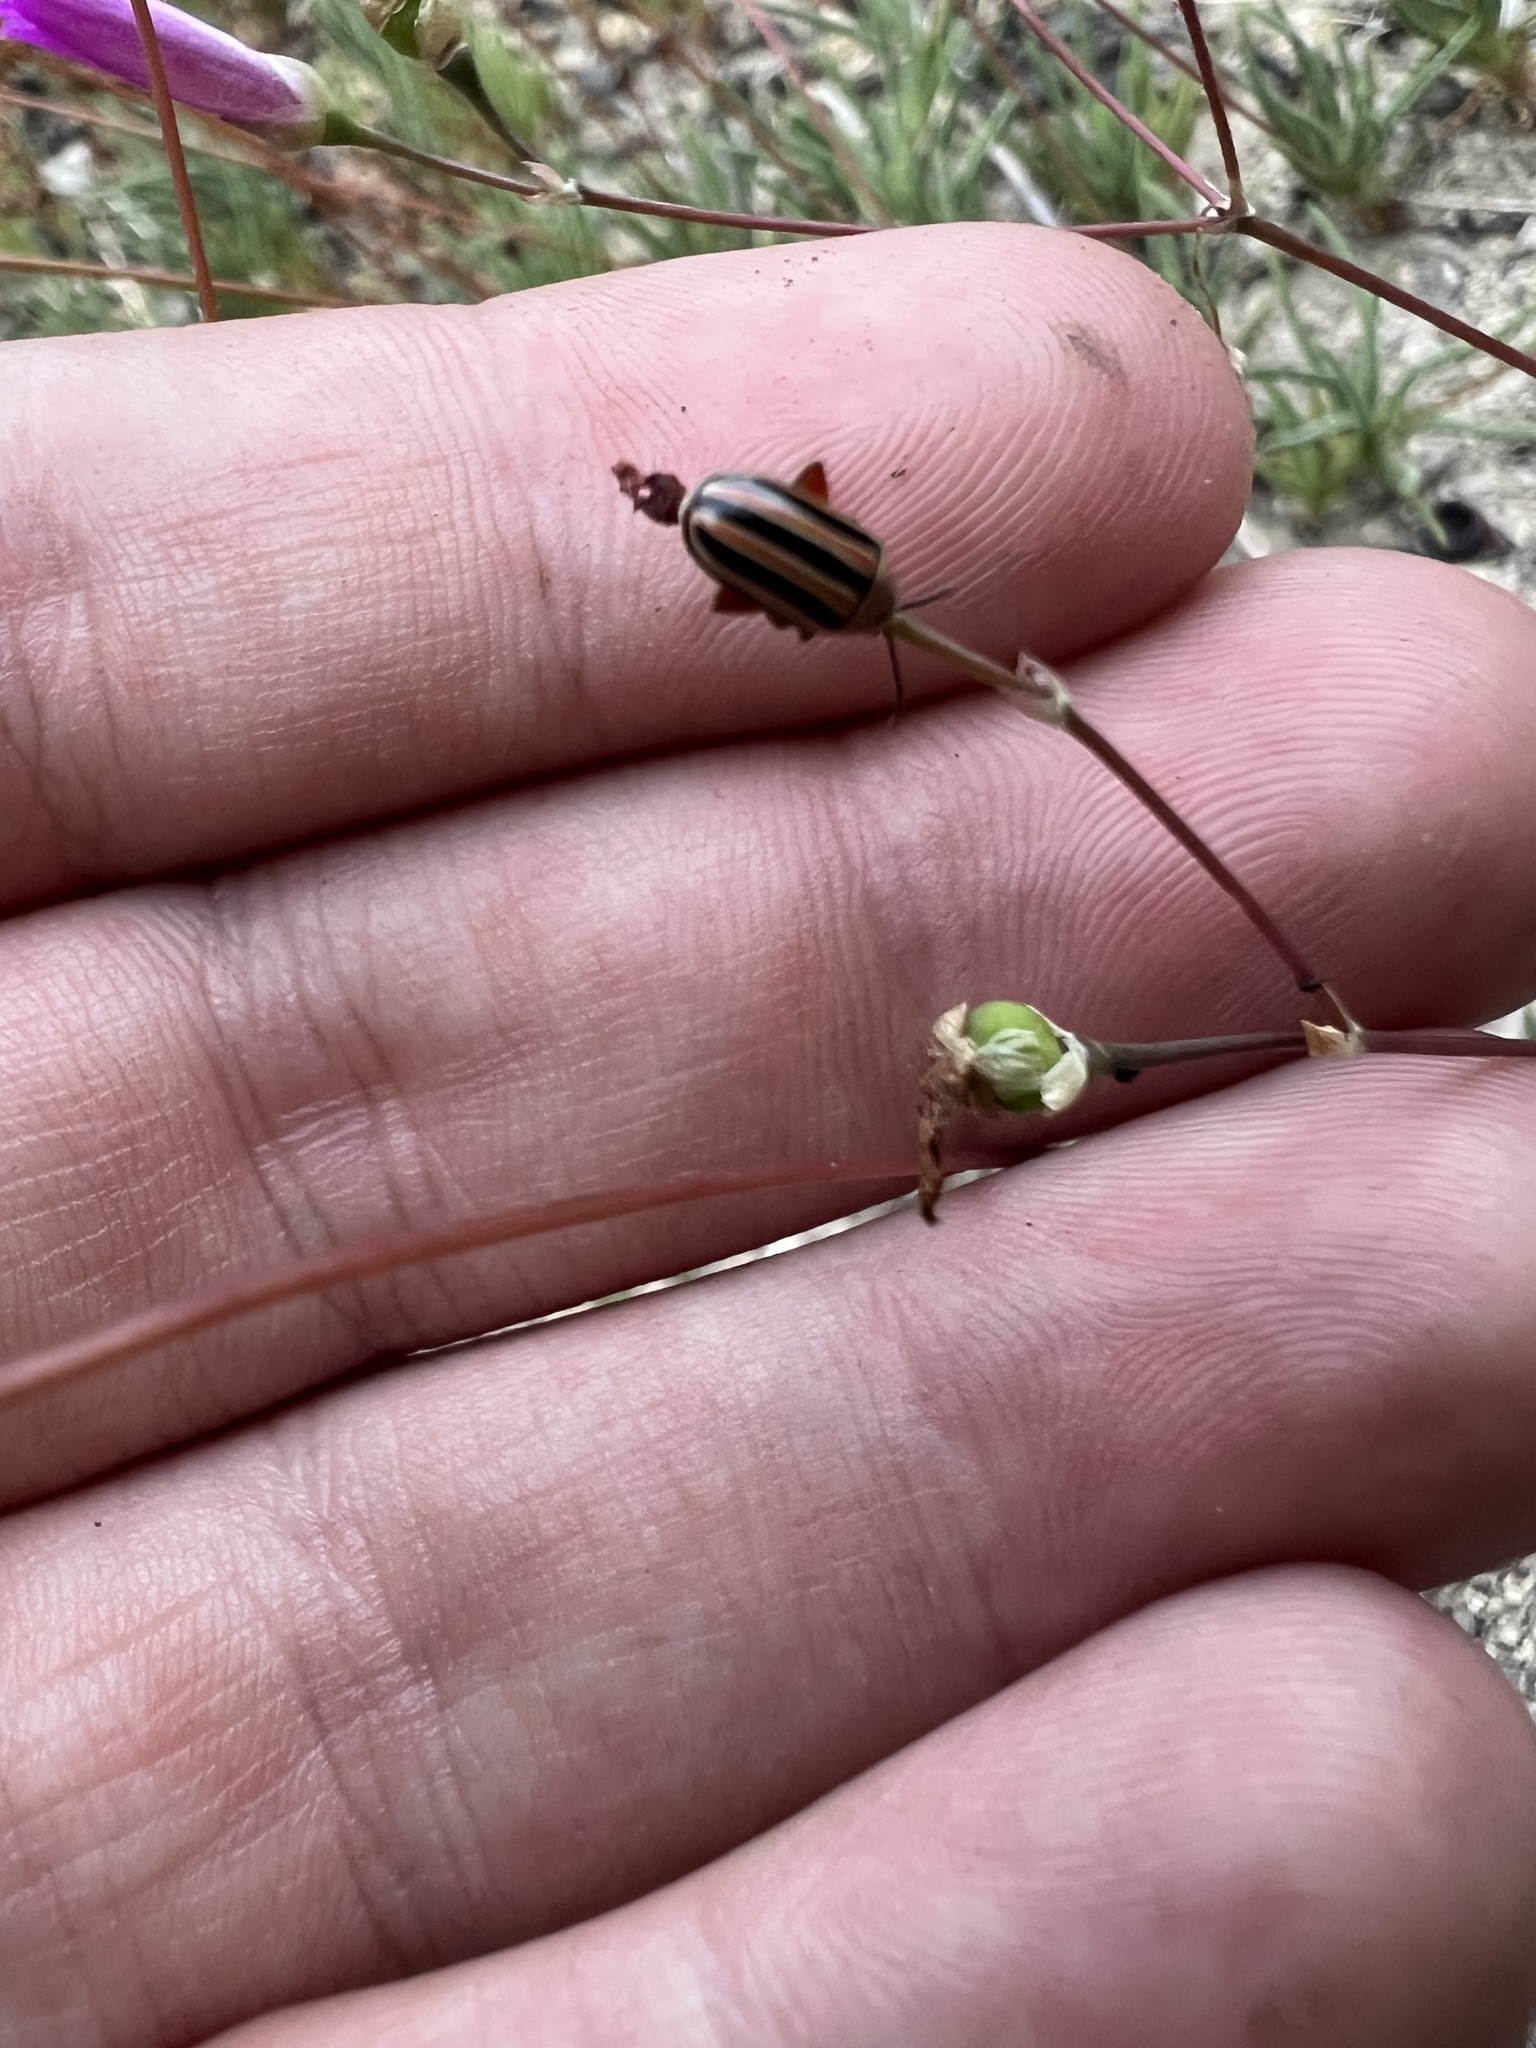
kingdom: Plantae
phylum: Tracheophyta
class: Magnoliopsida
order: Caryophyllales
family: Montiaceae
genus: Phemeranthus
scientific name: Phemeranthus calcaricus
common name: Limestone fameflower
